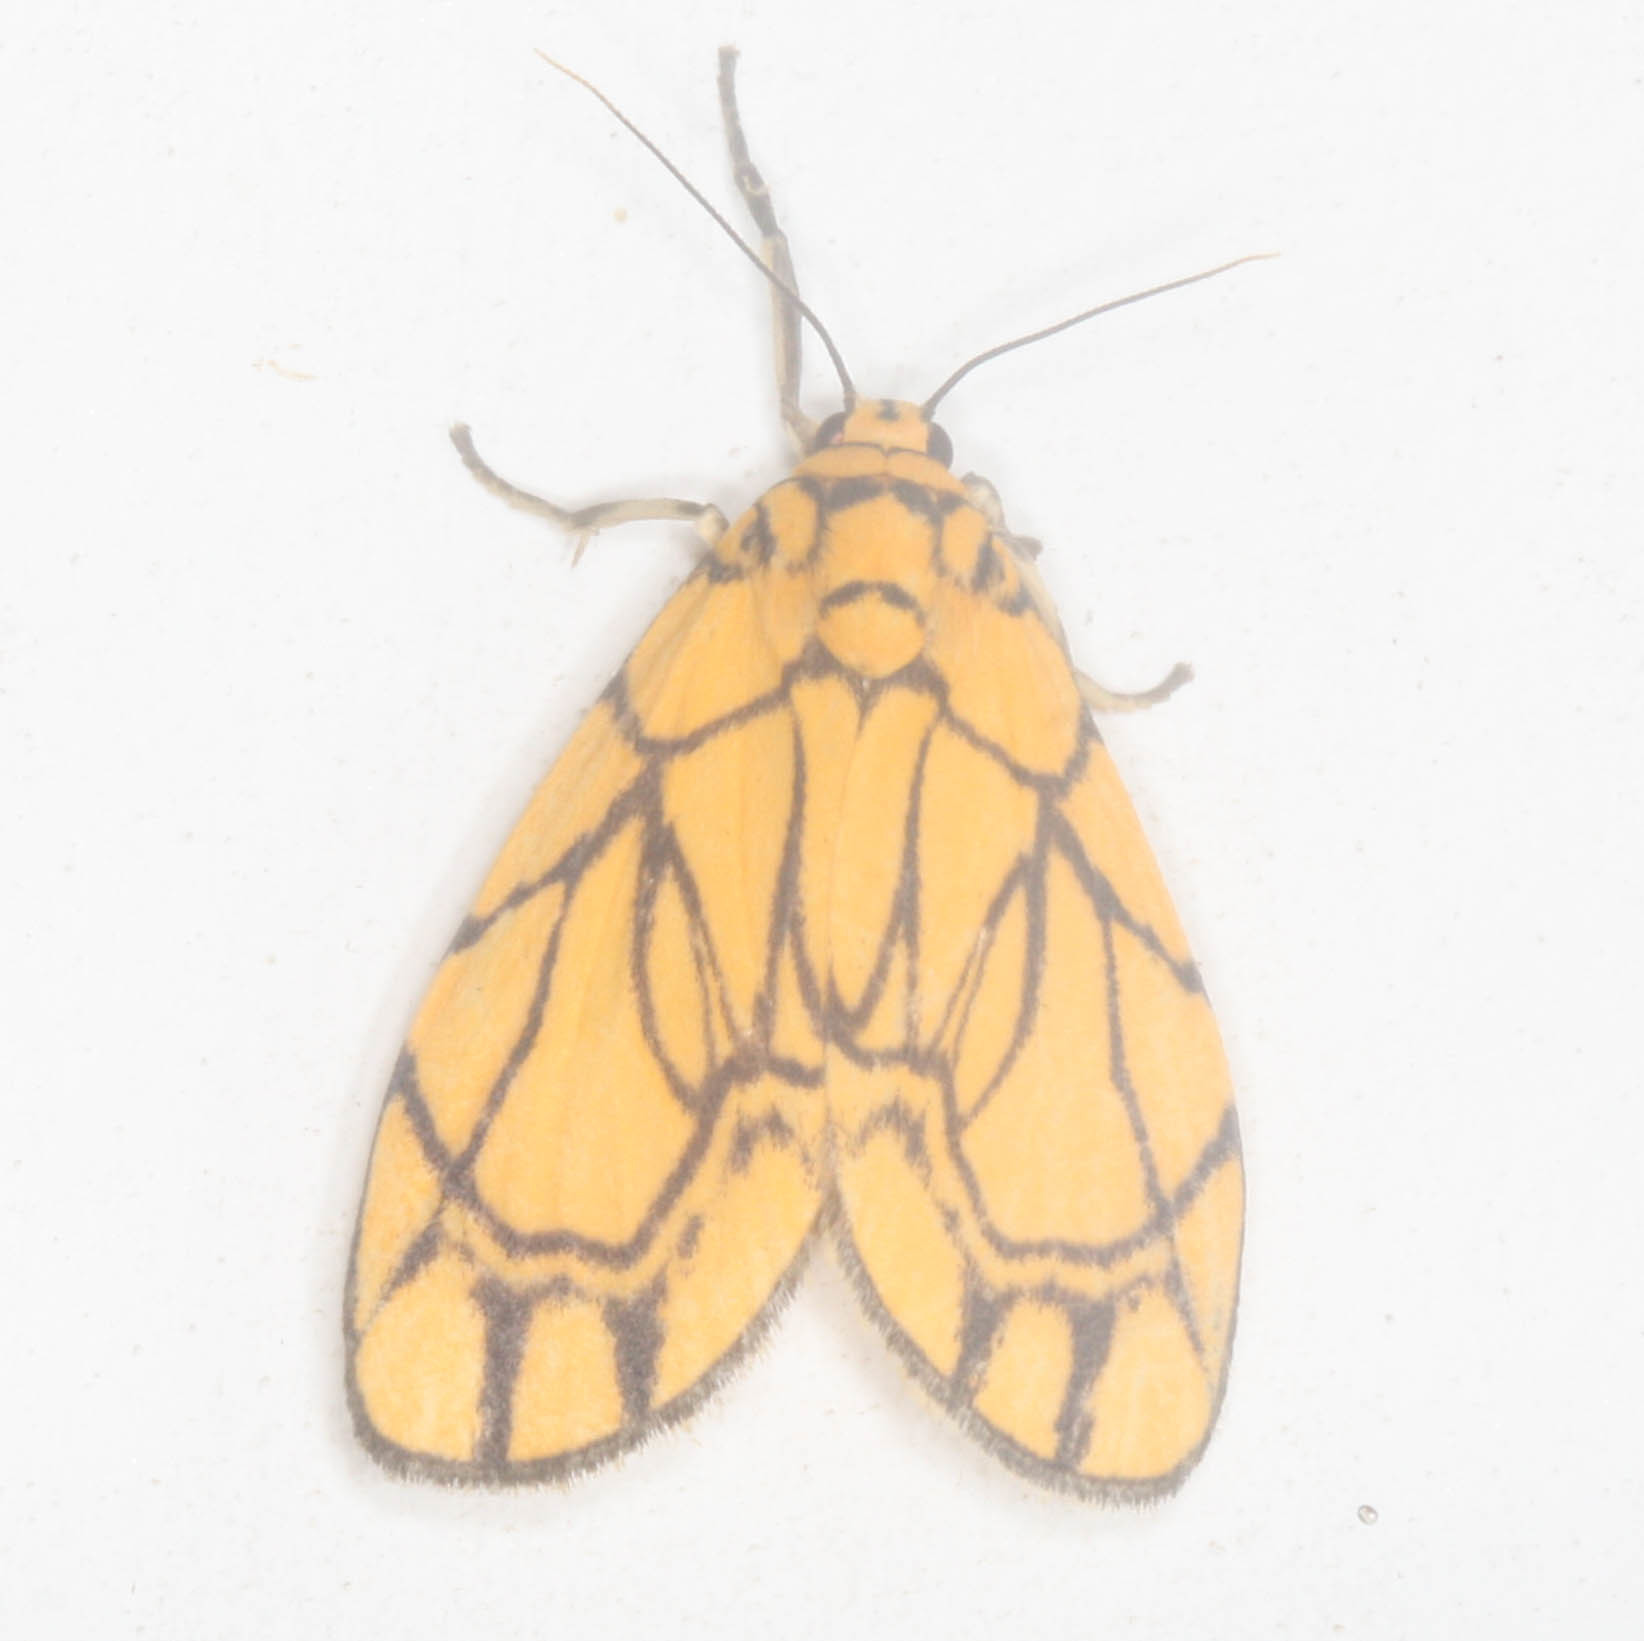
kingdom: Animalia
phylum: Arthropoda
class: Insecta
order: Lepidoptera
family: Erebidae
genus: Cyme
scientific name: Cyme euprepioides
